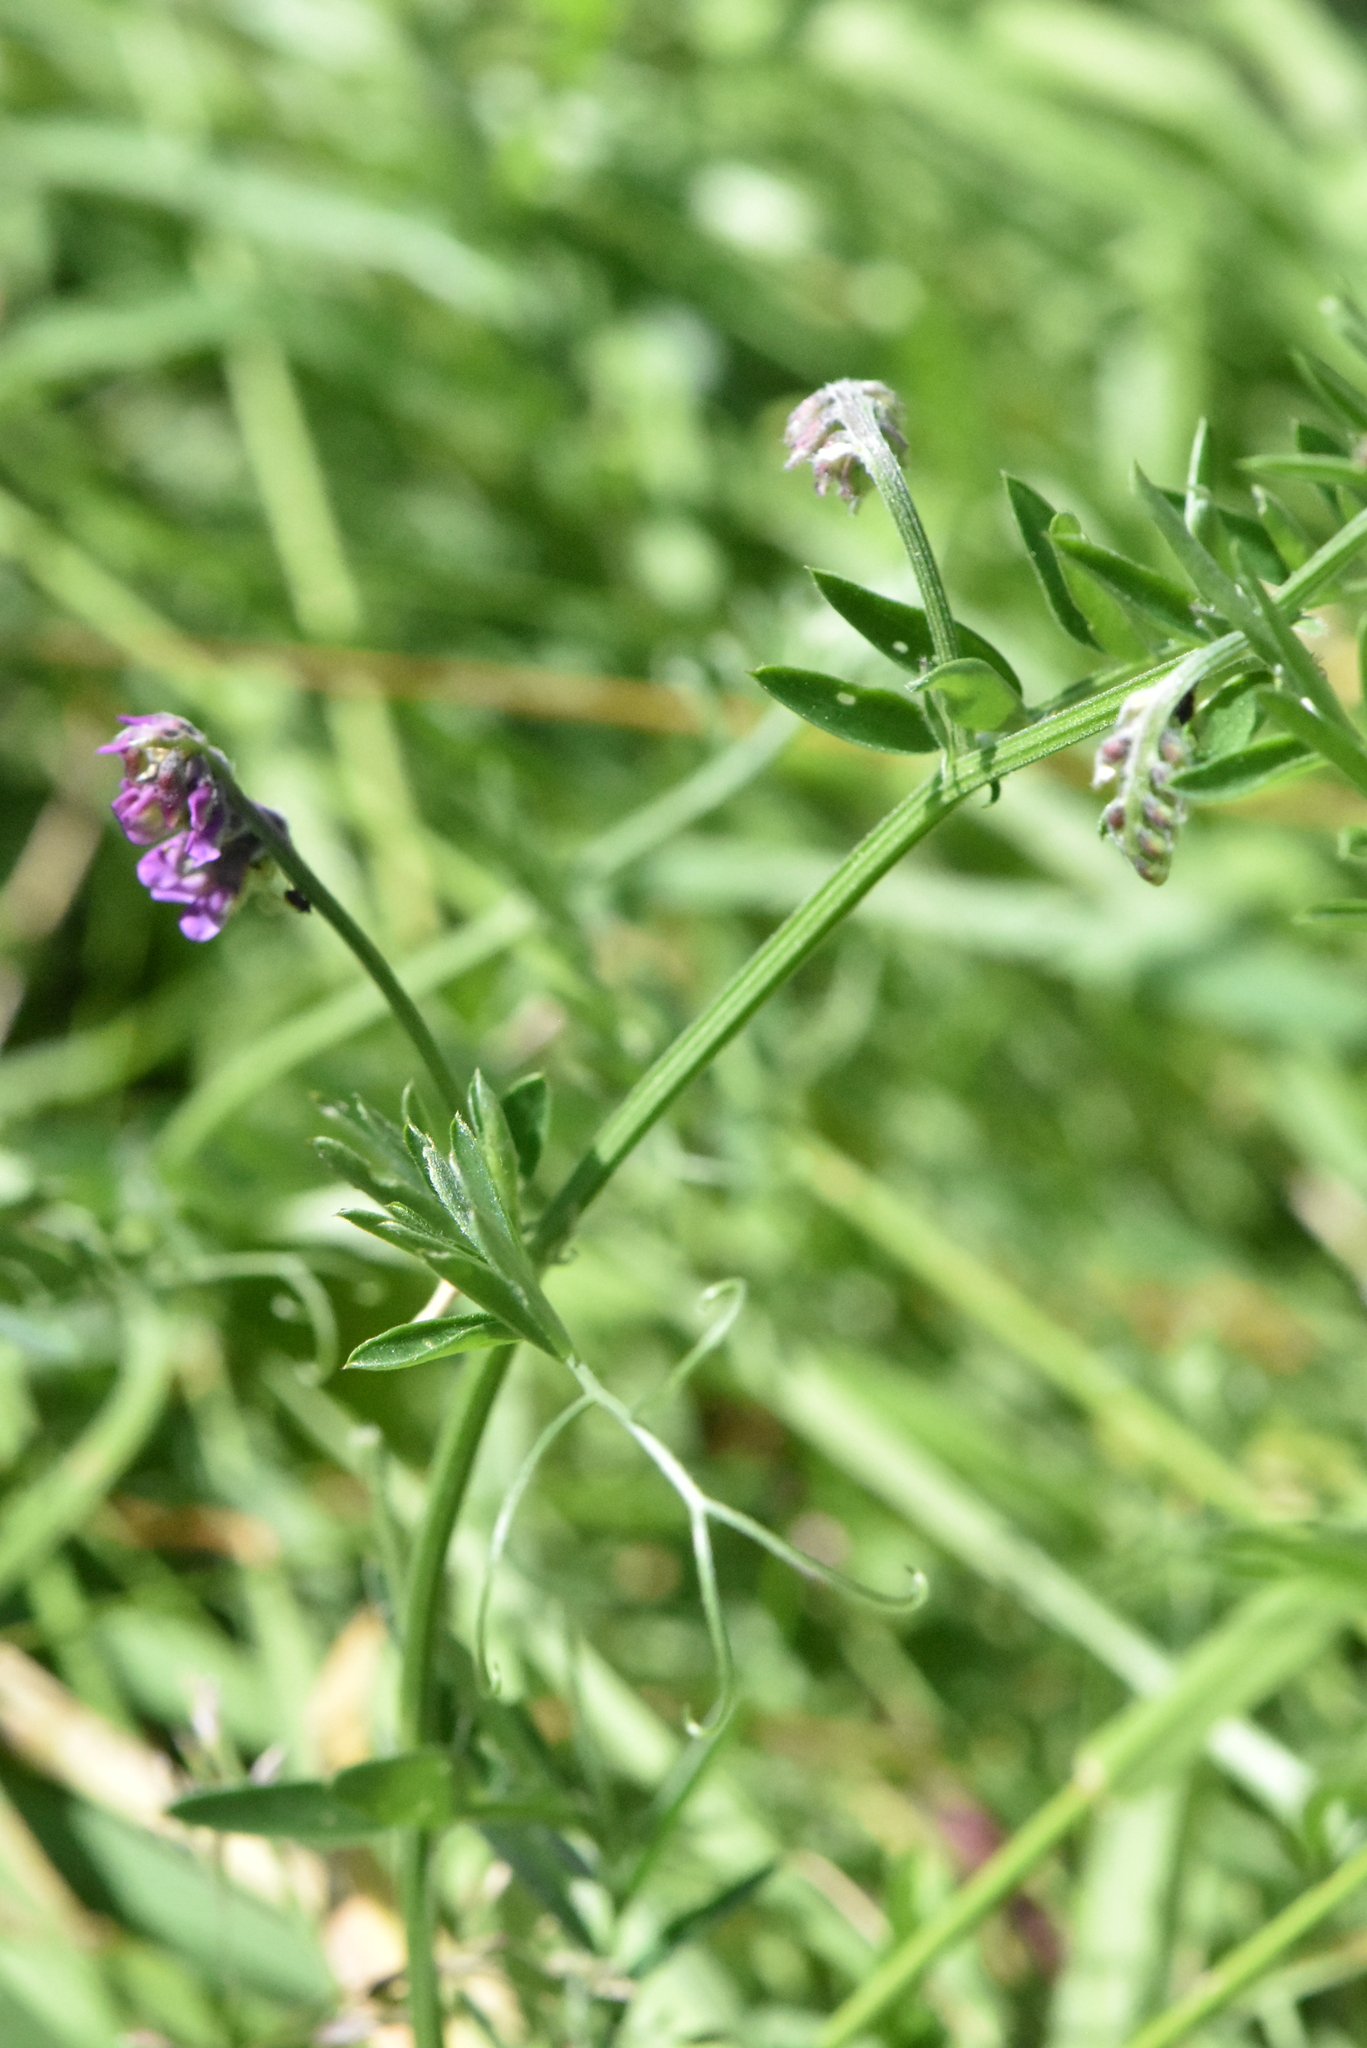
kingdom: Plantae
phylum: Tracheophyta
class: Magnoliopsida
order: Fabales
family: Fabaceae
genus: Vicia
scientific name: Vicia cracca
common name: Bird vetch
